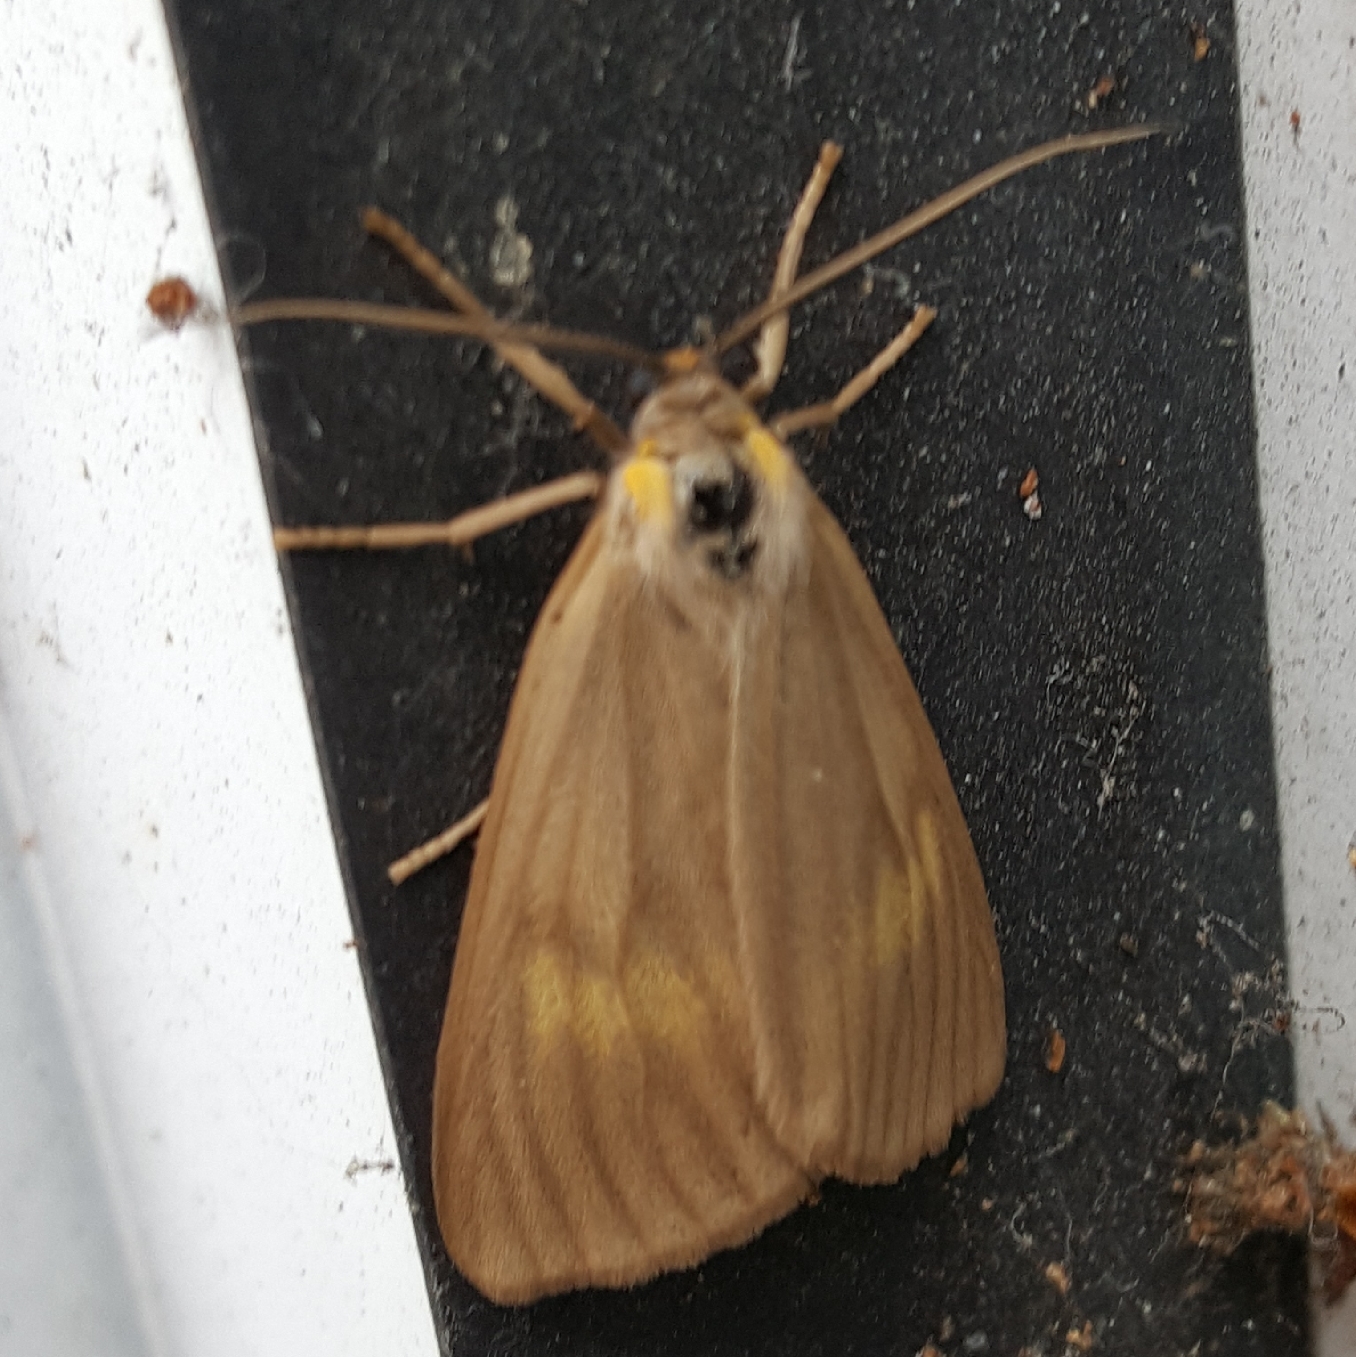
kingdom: Animalia
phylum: Arthropoda
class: Insecta
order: Lepidoptera
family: Notodontidae
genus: Phryganidia
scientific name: Phryganidia californica
